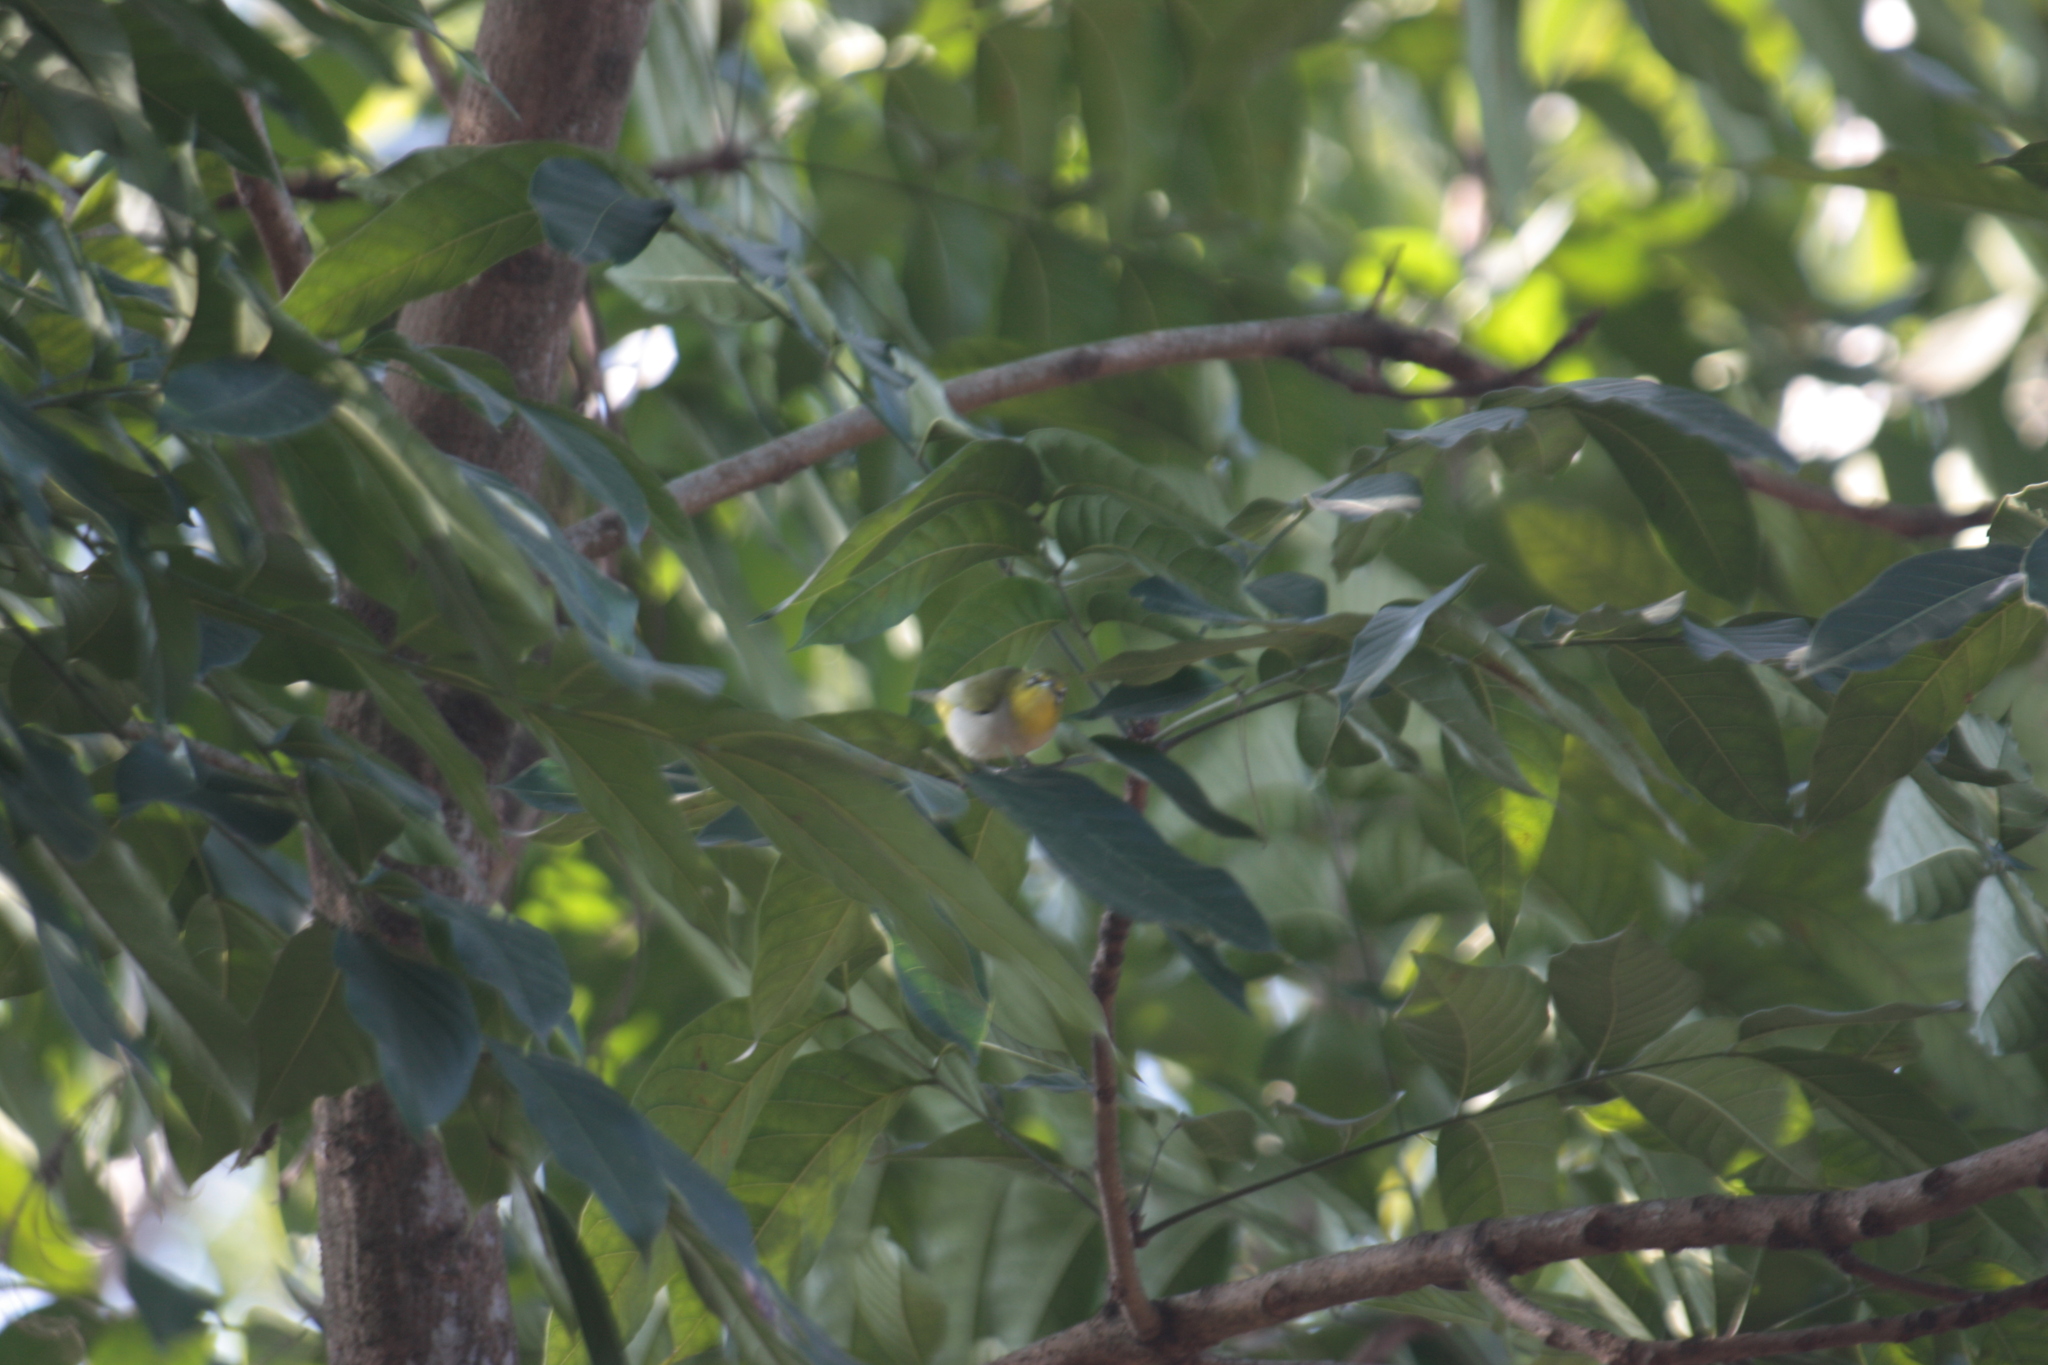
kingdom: Animalia
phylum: Chordata
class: Aves
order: Passeriformes
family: Zosteropidae
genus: Zosterops
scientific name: Zosterops simplex
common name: Swinhoe's white-eye
